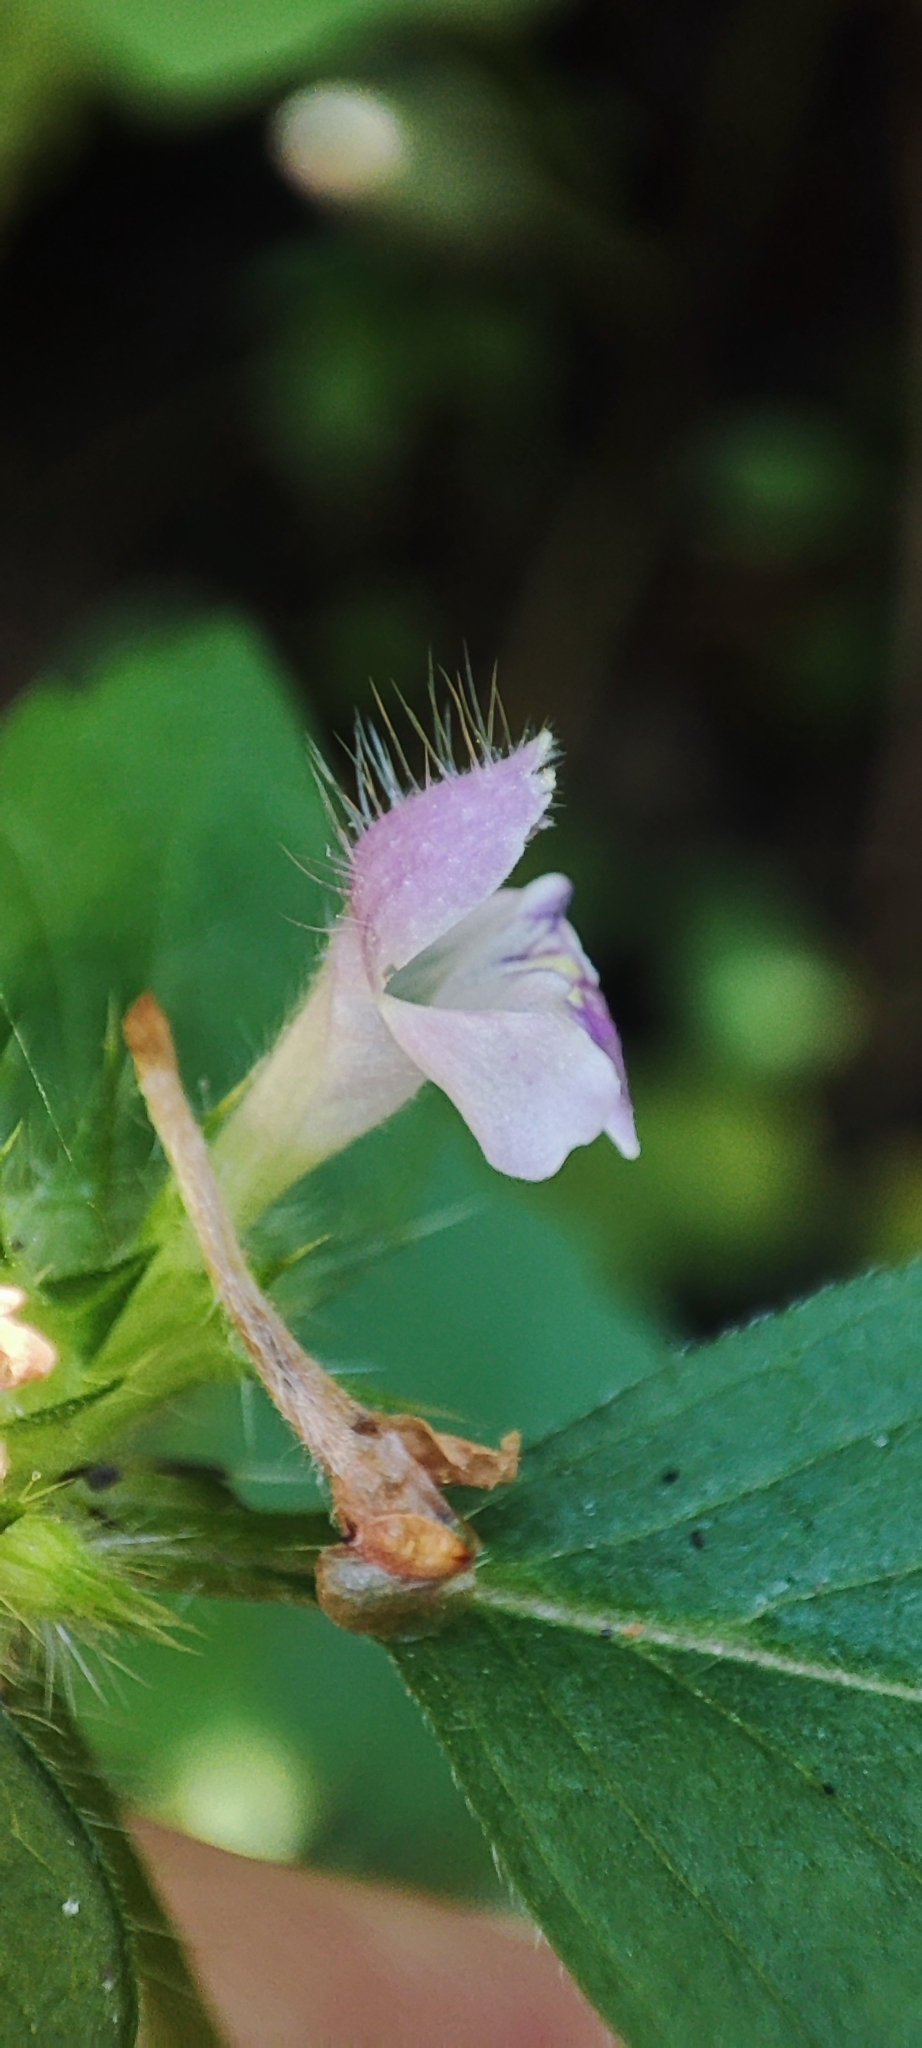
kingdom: Plantae
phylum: Tracheophyta
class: Magnoliopsida
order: Lamiales
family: Lamiaceae
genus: Galeopsis
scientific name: Galeopsis bifida
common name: Bifid hemp-nettle
